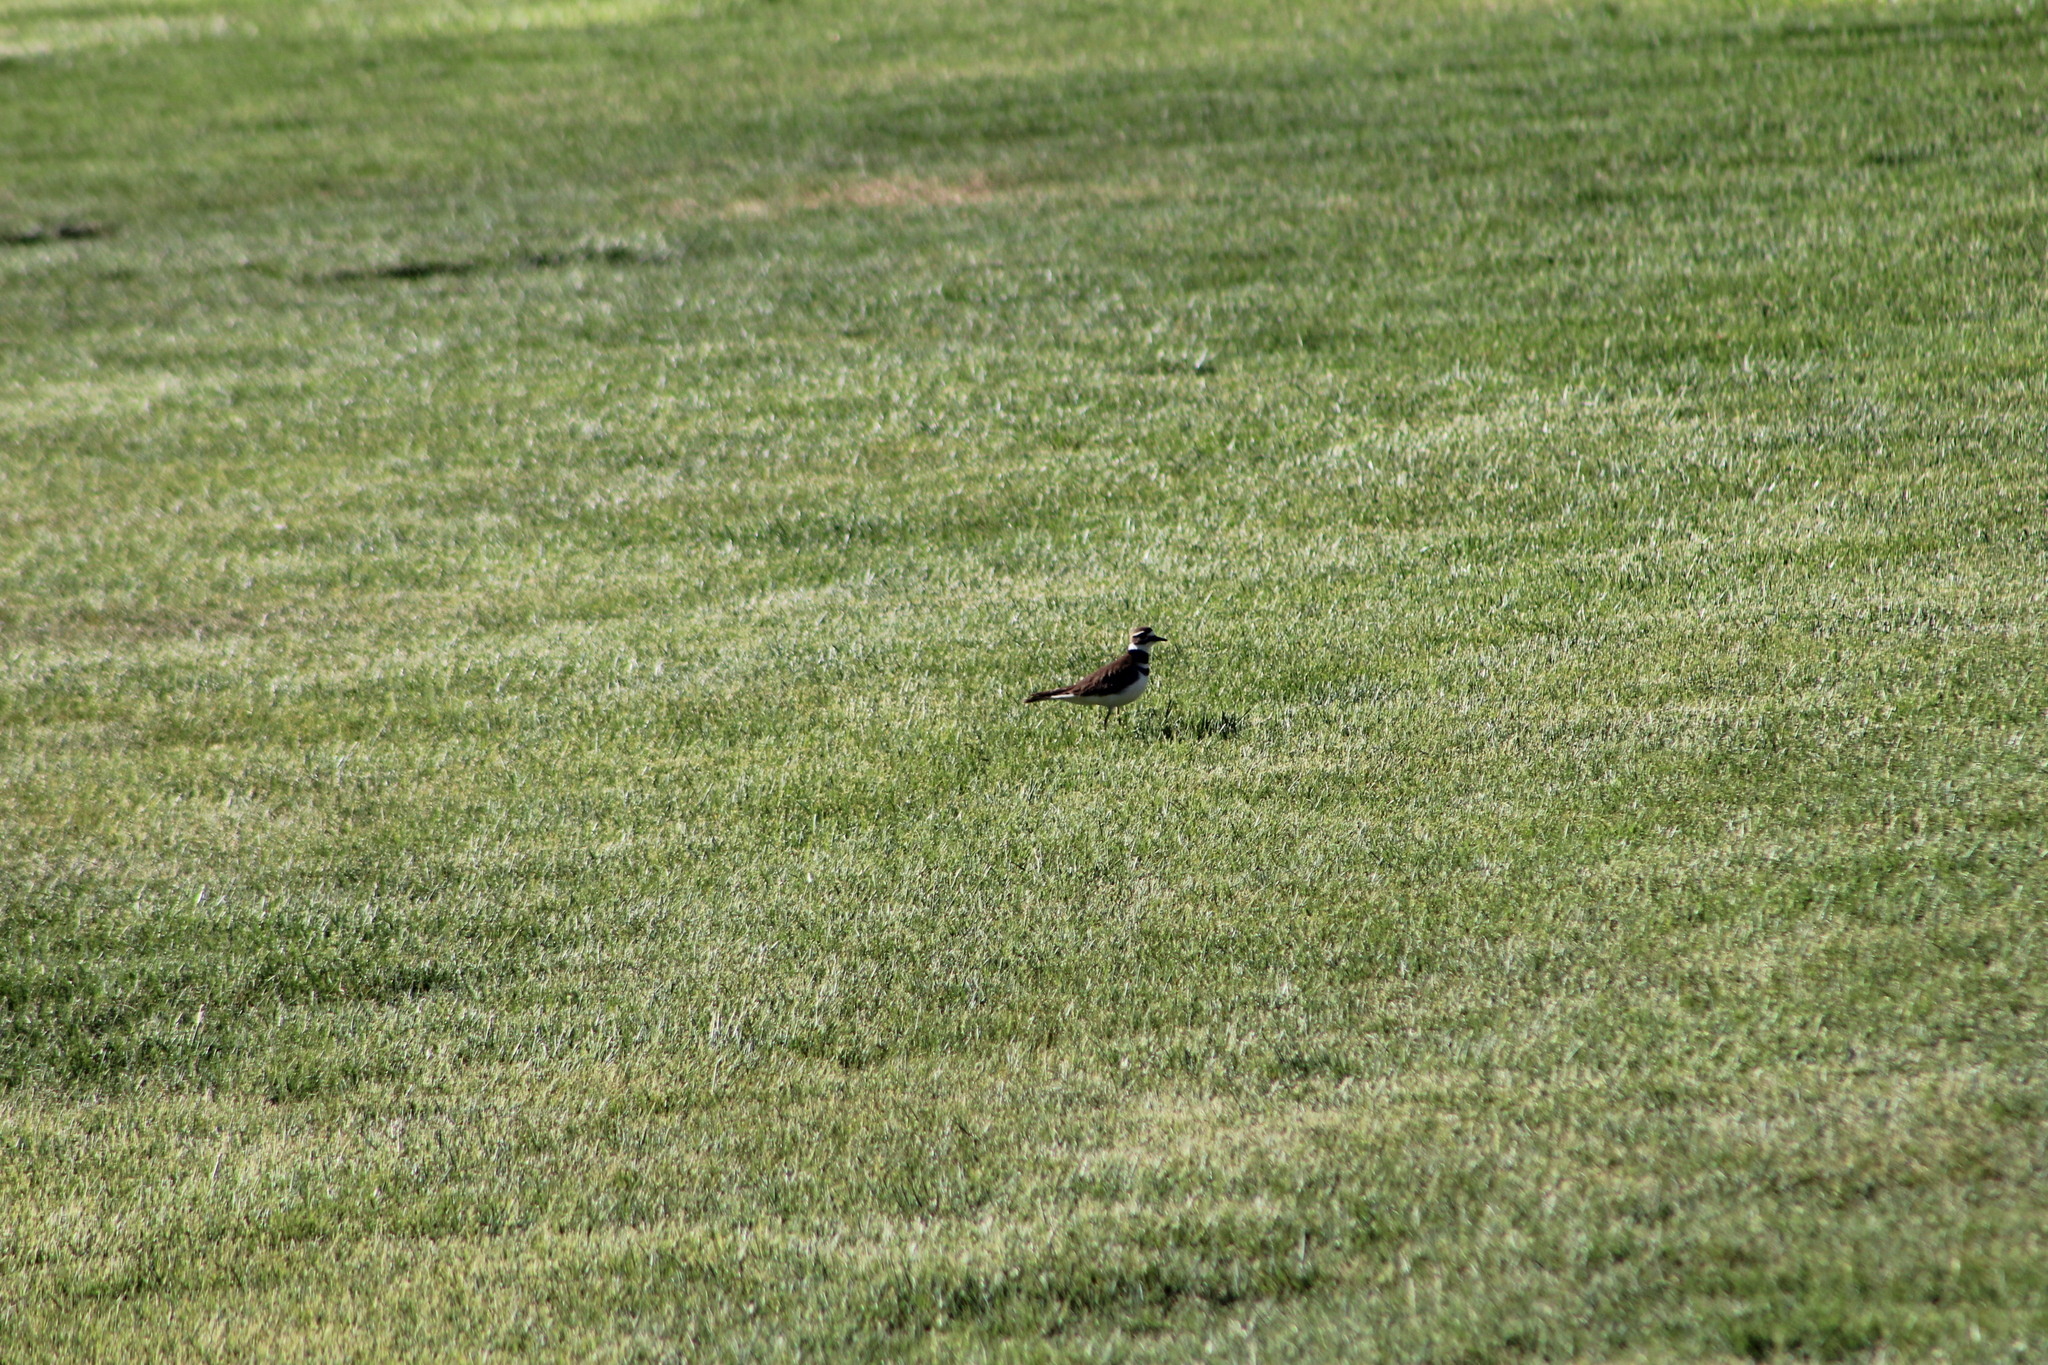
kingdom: Animalia
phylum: Chordata
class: Aves
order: Charadriiformes
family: Charadriidae
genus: Charadrius
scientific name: Charadrius vociferus
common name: Killdeer
